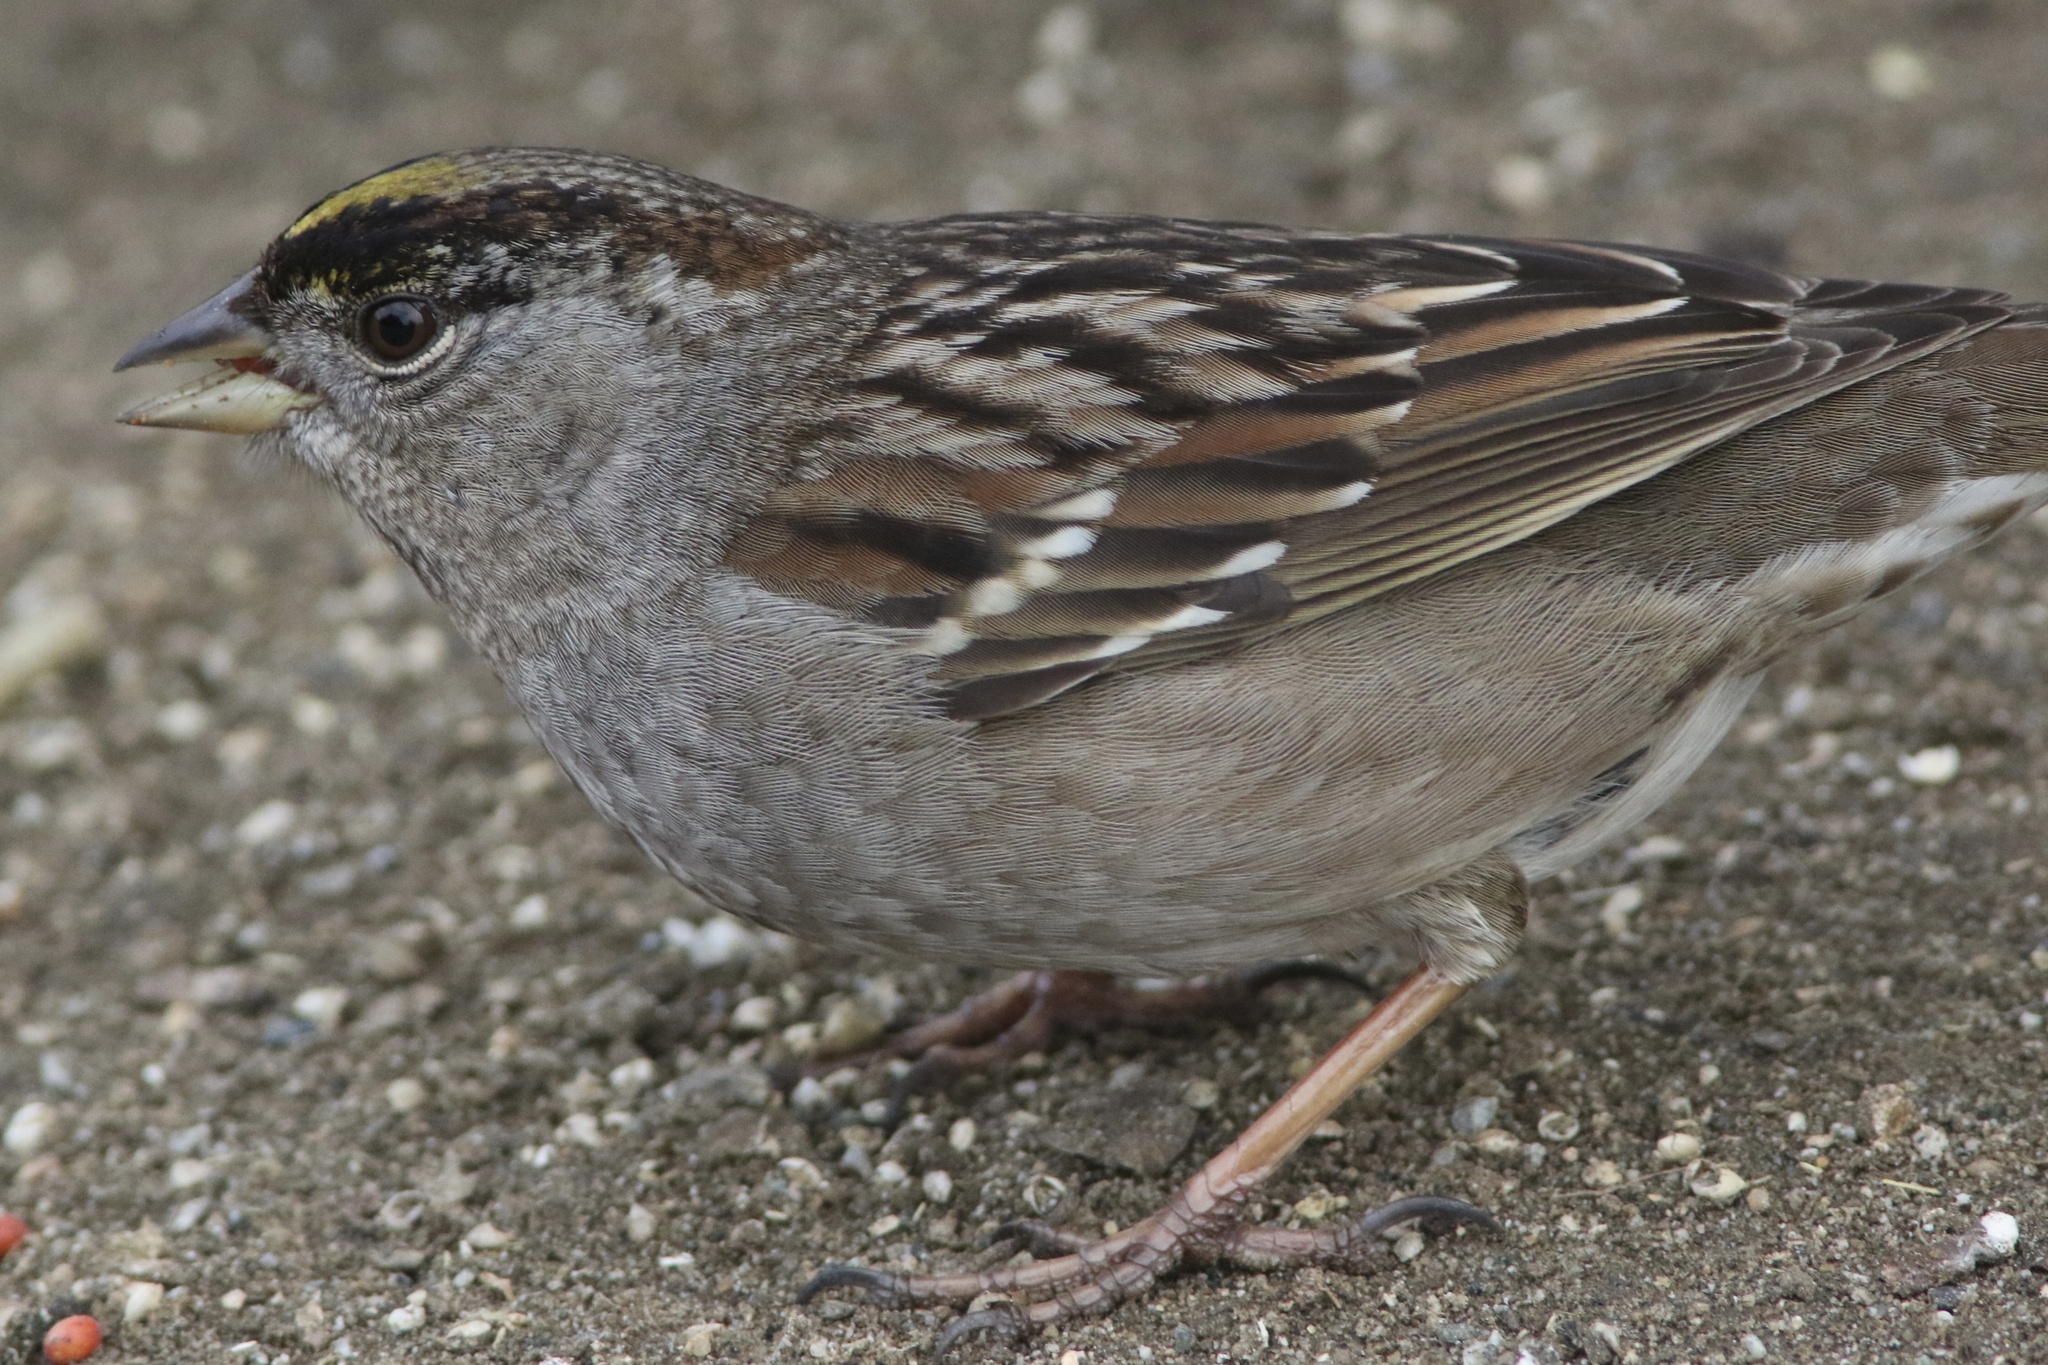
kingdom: Animalia
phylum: Chordata
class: Aves
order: Passeriformes
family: Passerellidae
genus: Zonotrichia
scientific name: Zonotrichia atricapilla
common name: Golden-crowned sparrow
